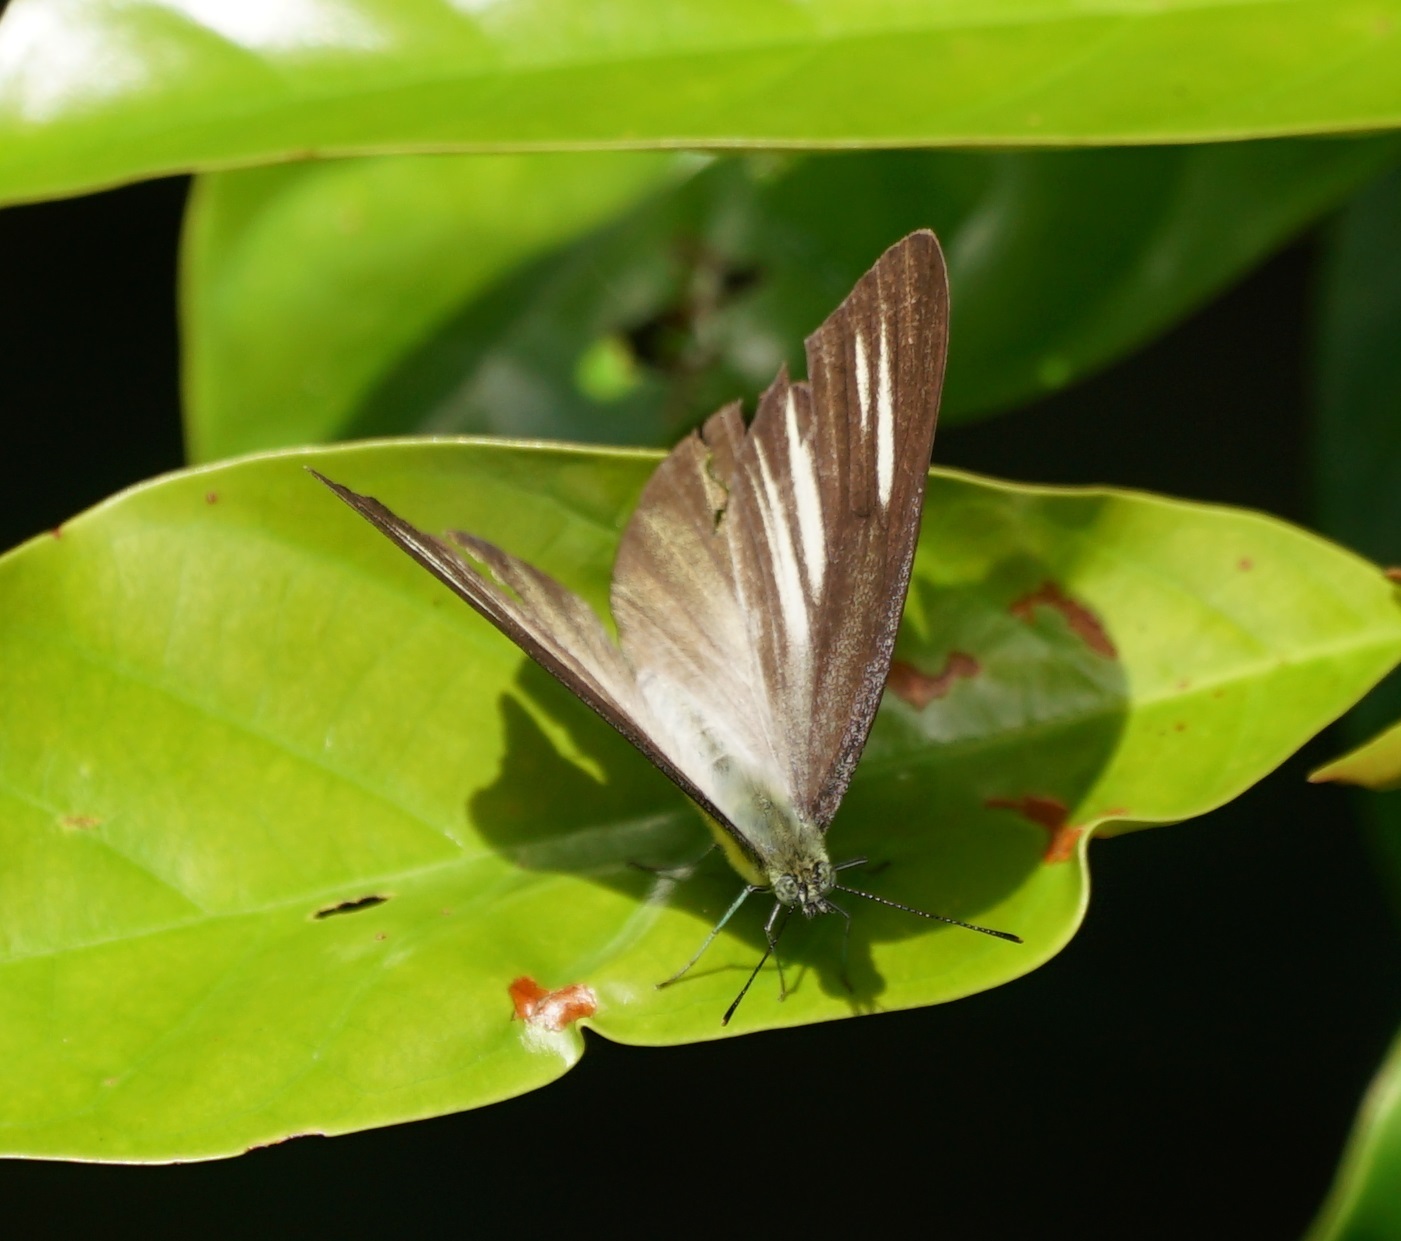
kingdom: Animalia
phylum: Arthropoda
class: Insecta
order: Lepidoptera
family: Pieridae
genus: Appias
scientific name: Appias cardena
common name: Yellow puffin
